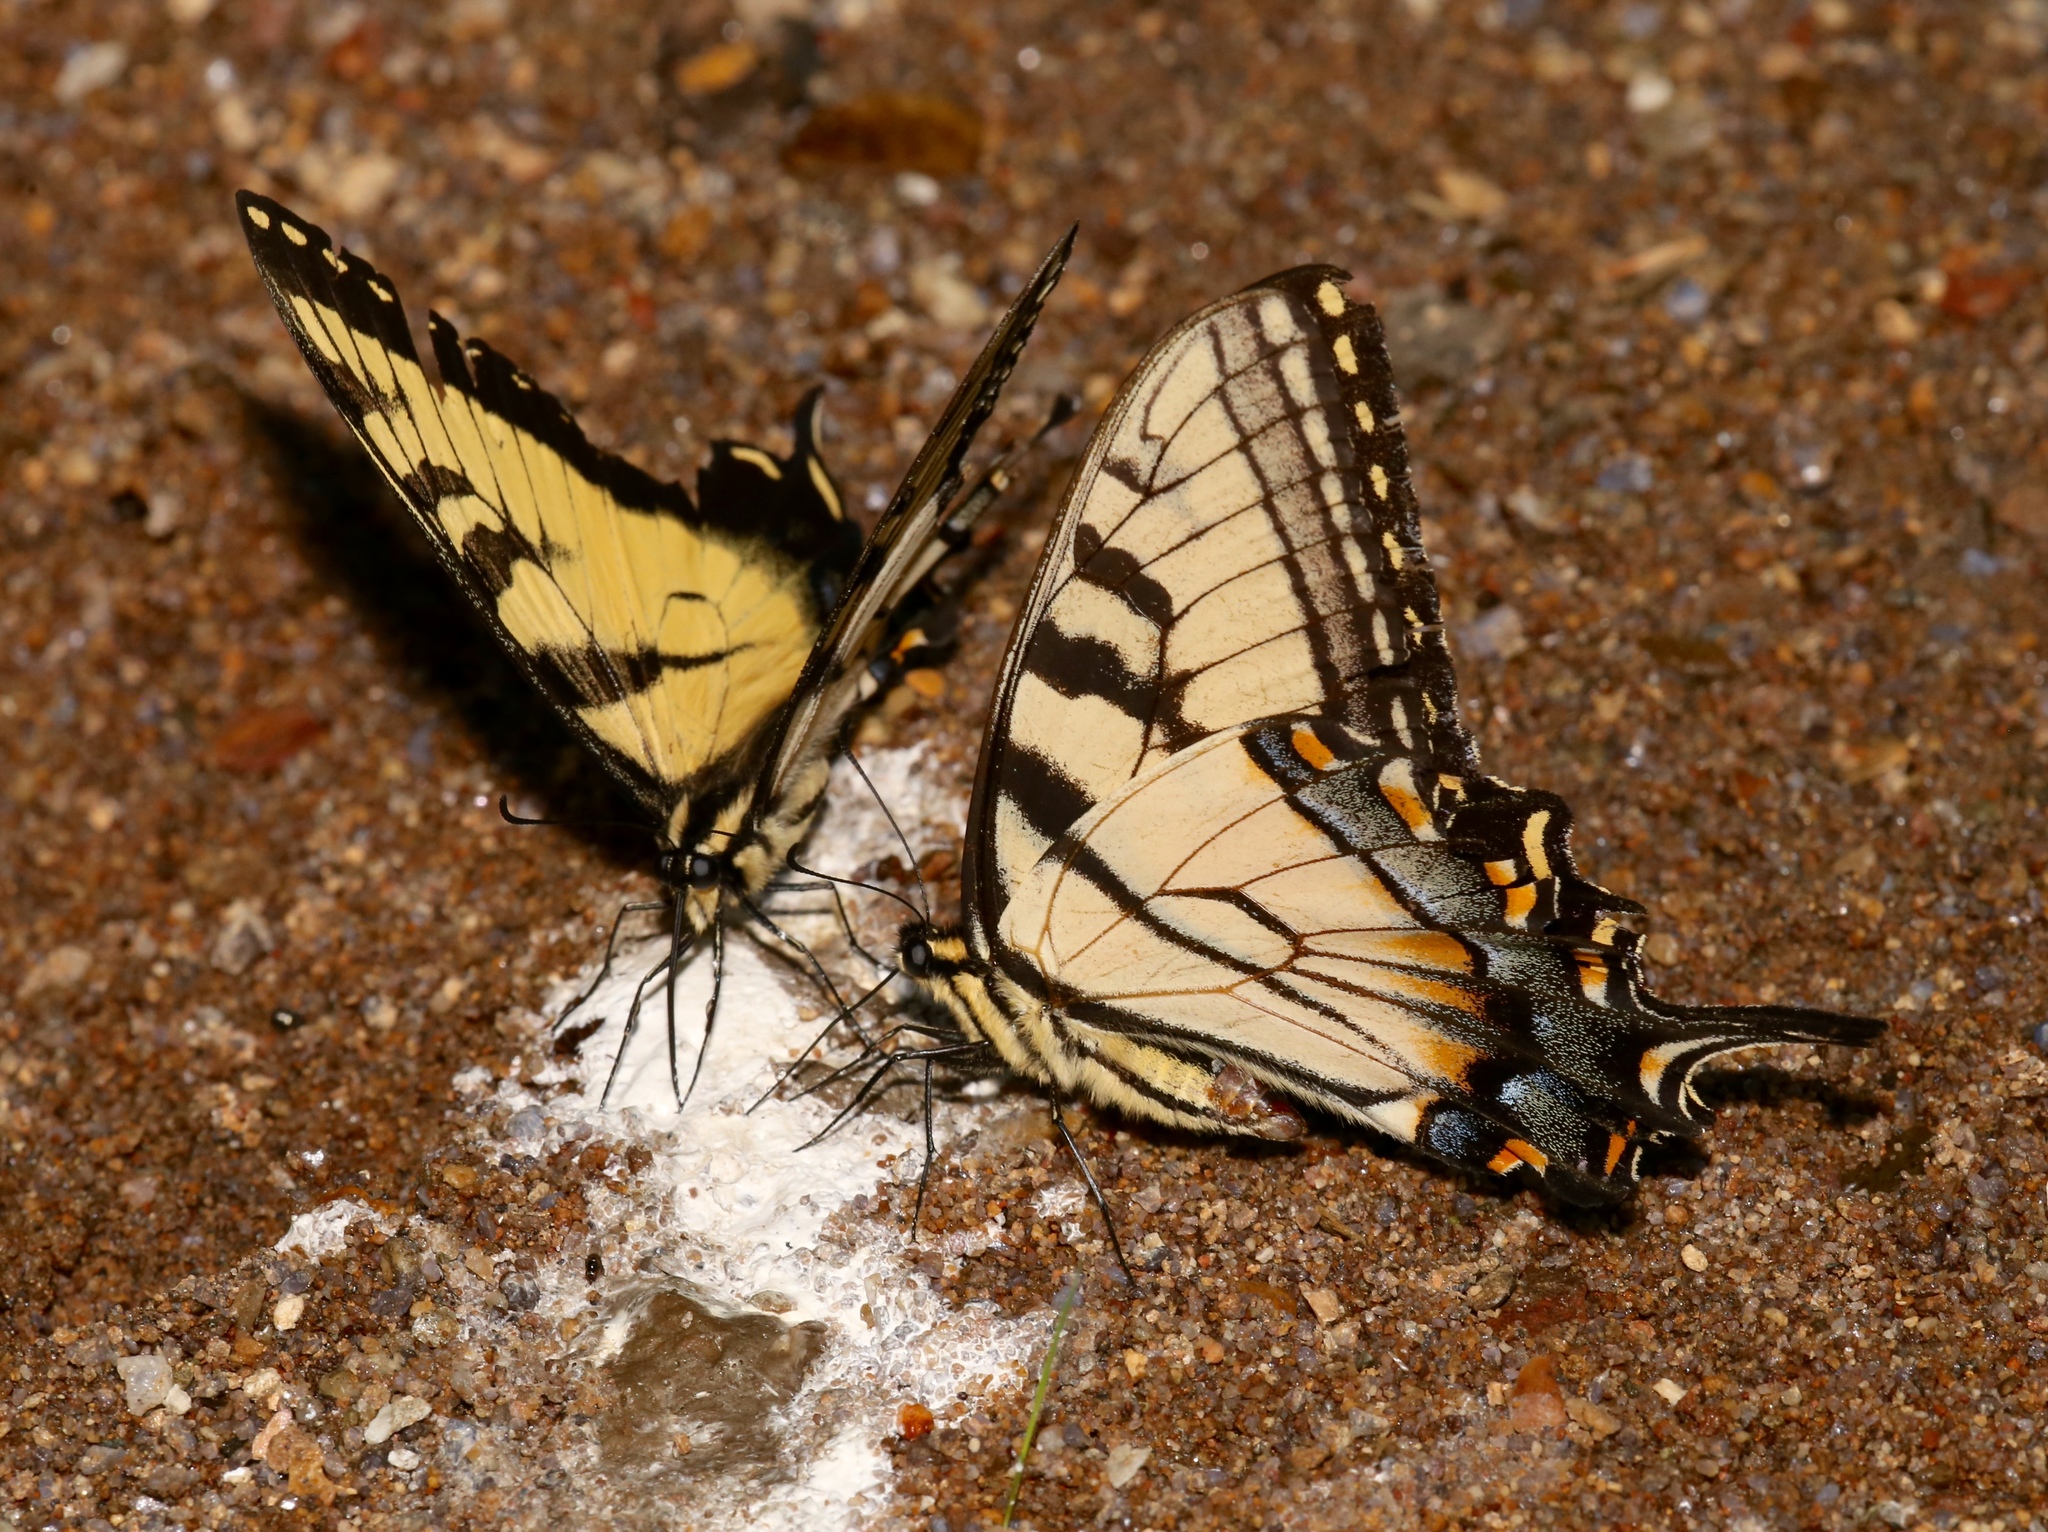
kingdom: Animalia
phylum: Arthropoda
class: Insecta
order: Lepidoptera
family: Papilionidae
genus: Papilio
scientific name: Papilio glaucus
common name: Tiger swallowtail
